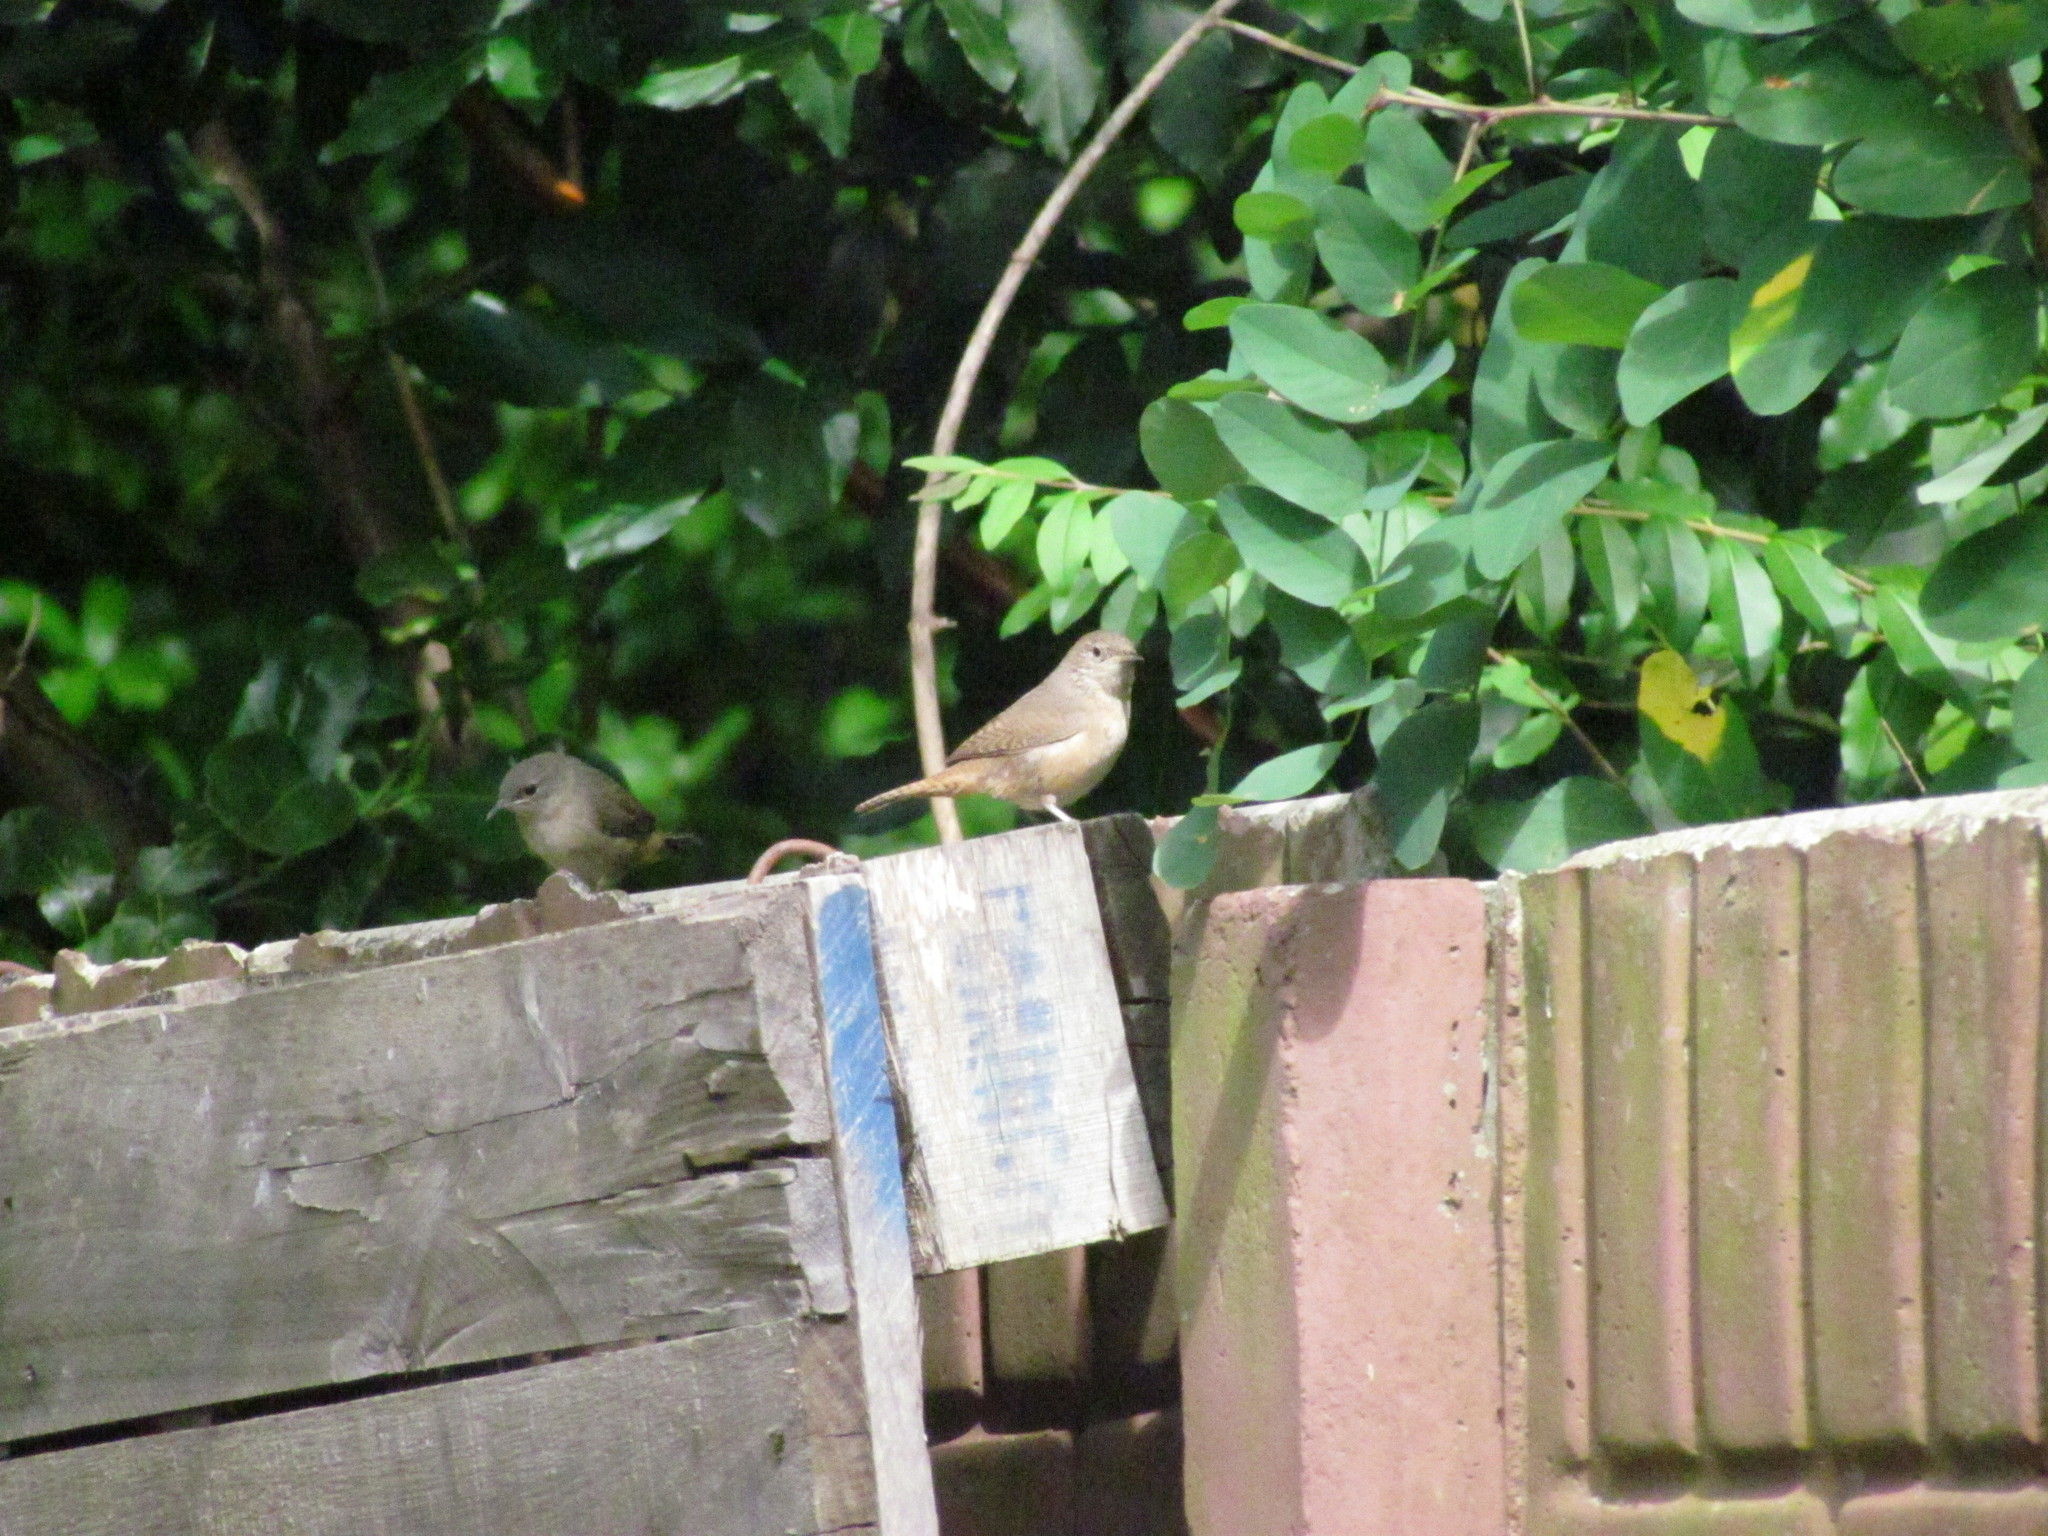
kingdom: Animalia
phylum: Chordata
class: Aves
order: Passeriformes
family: Troglodytidae
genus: Troglodytes
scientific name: Troglodytes aedon
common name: House wren
